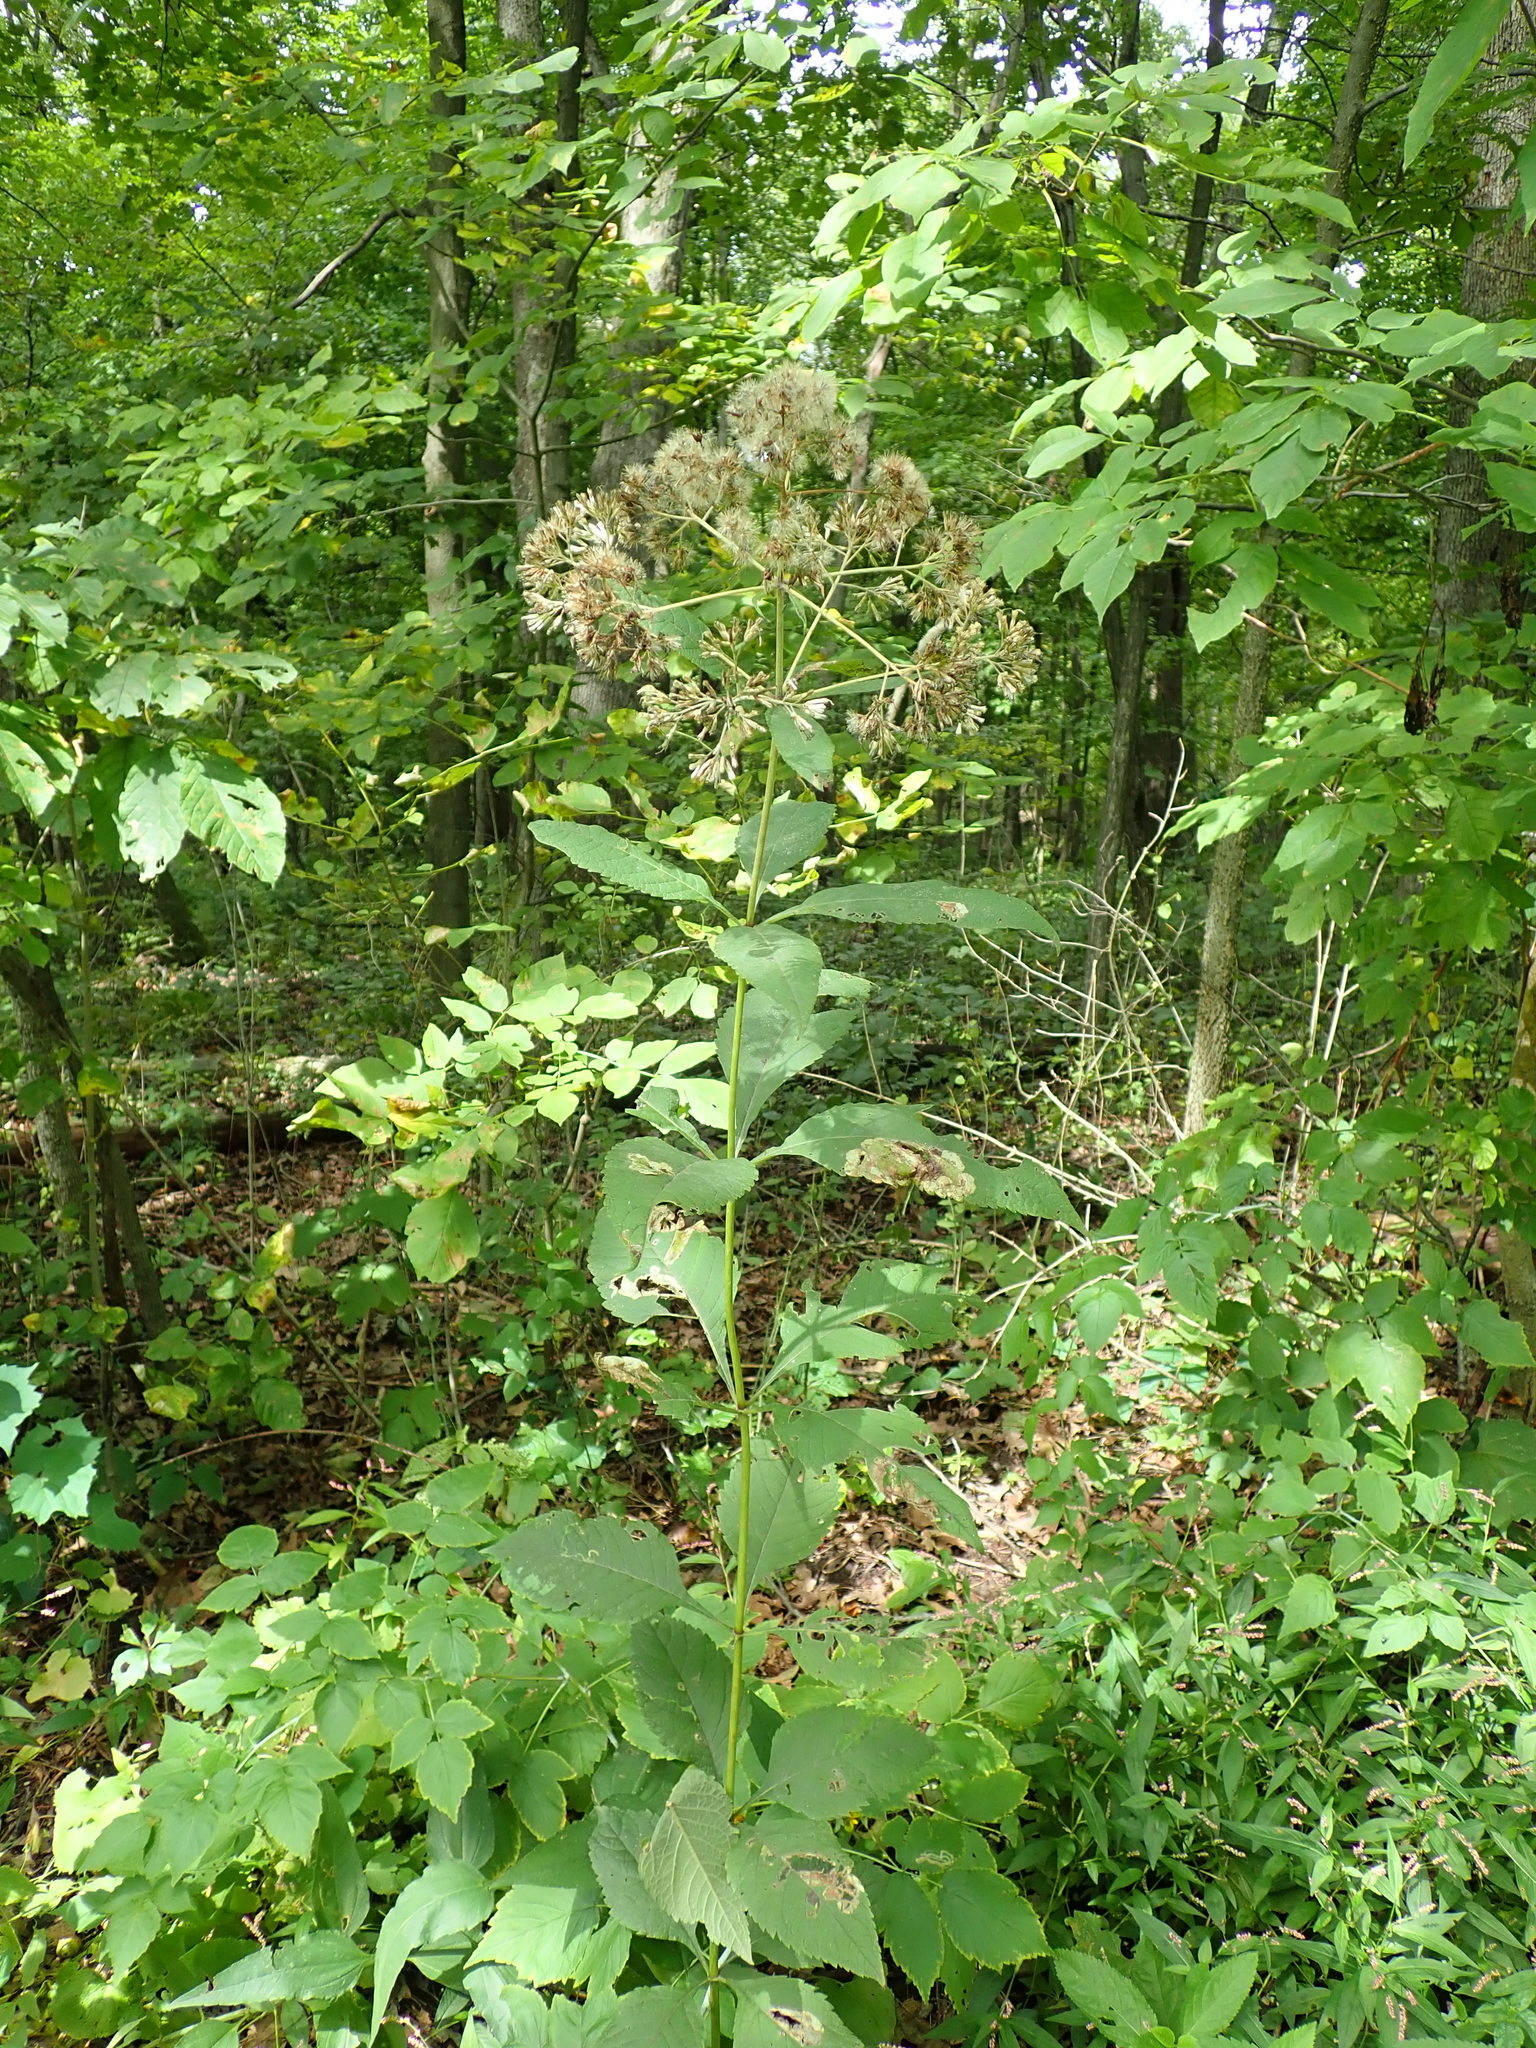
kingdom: Plantae
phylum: Tracheophyta
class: Magnoliopsida
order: Asterales
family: Asteraceae
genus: Eutrochium
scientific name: Eutrochium
